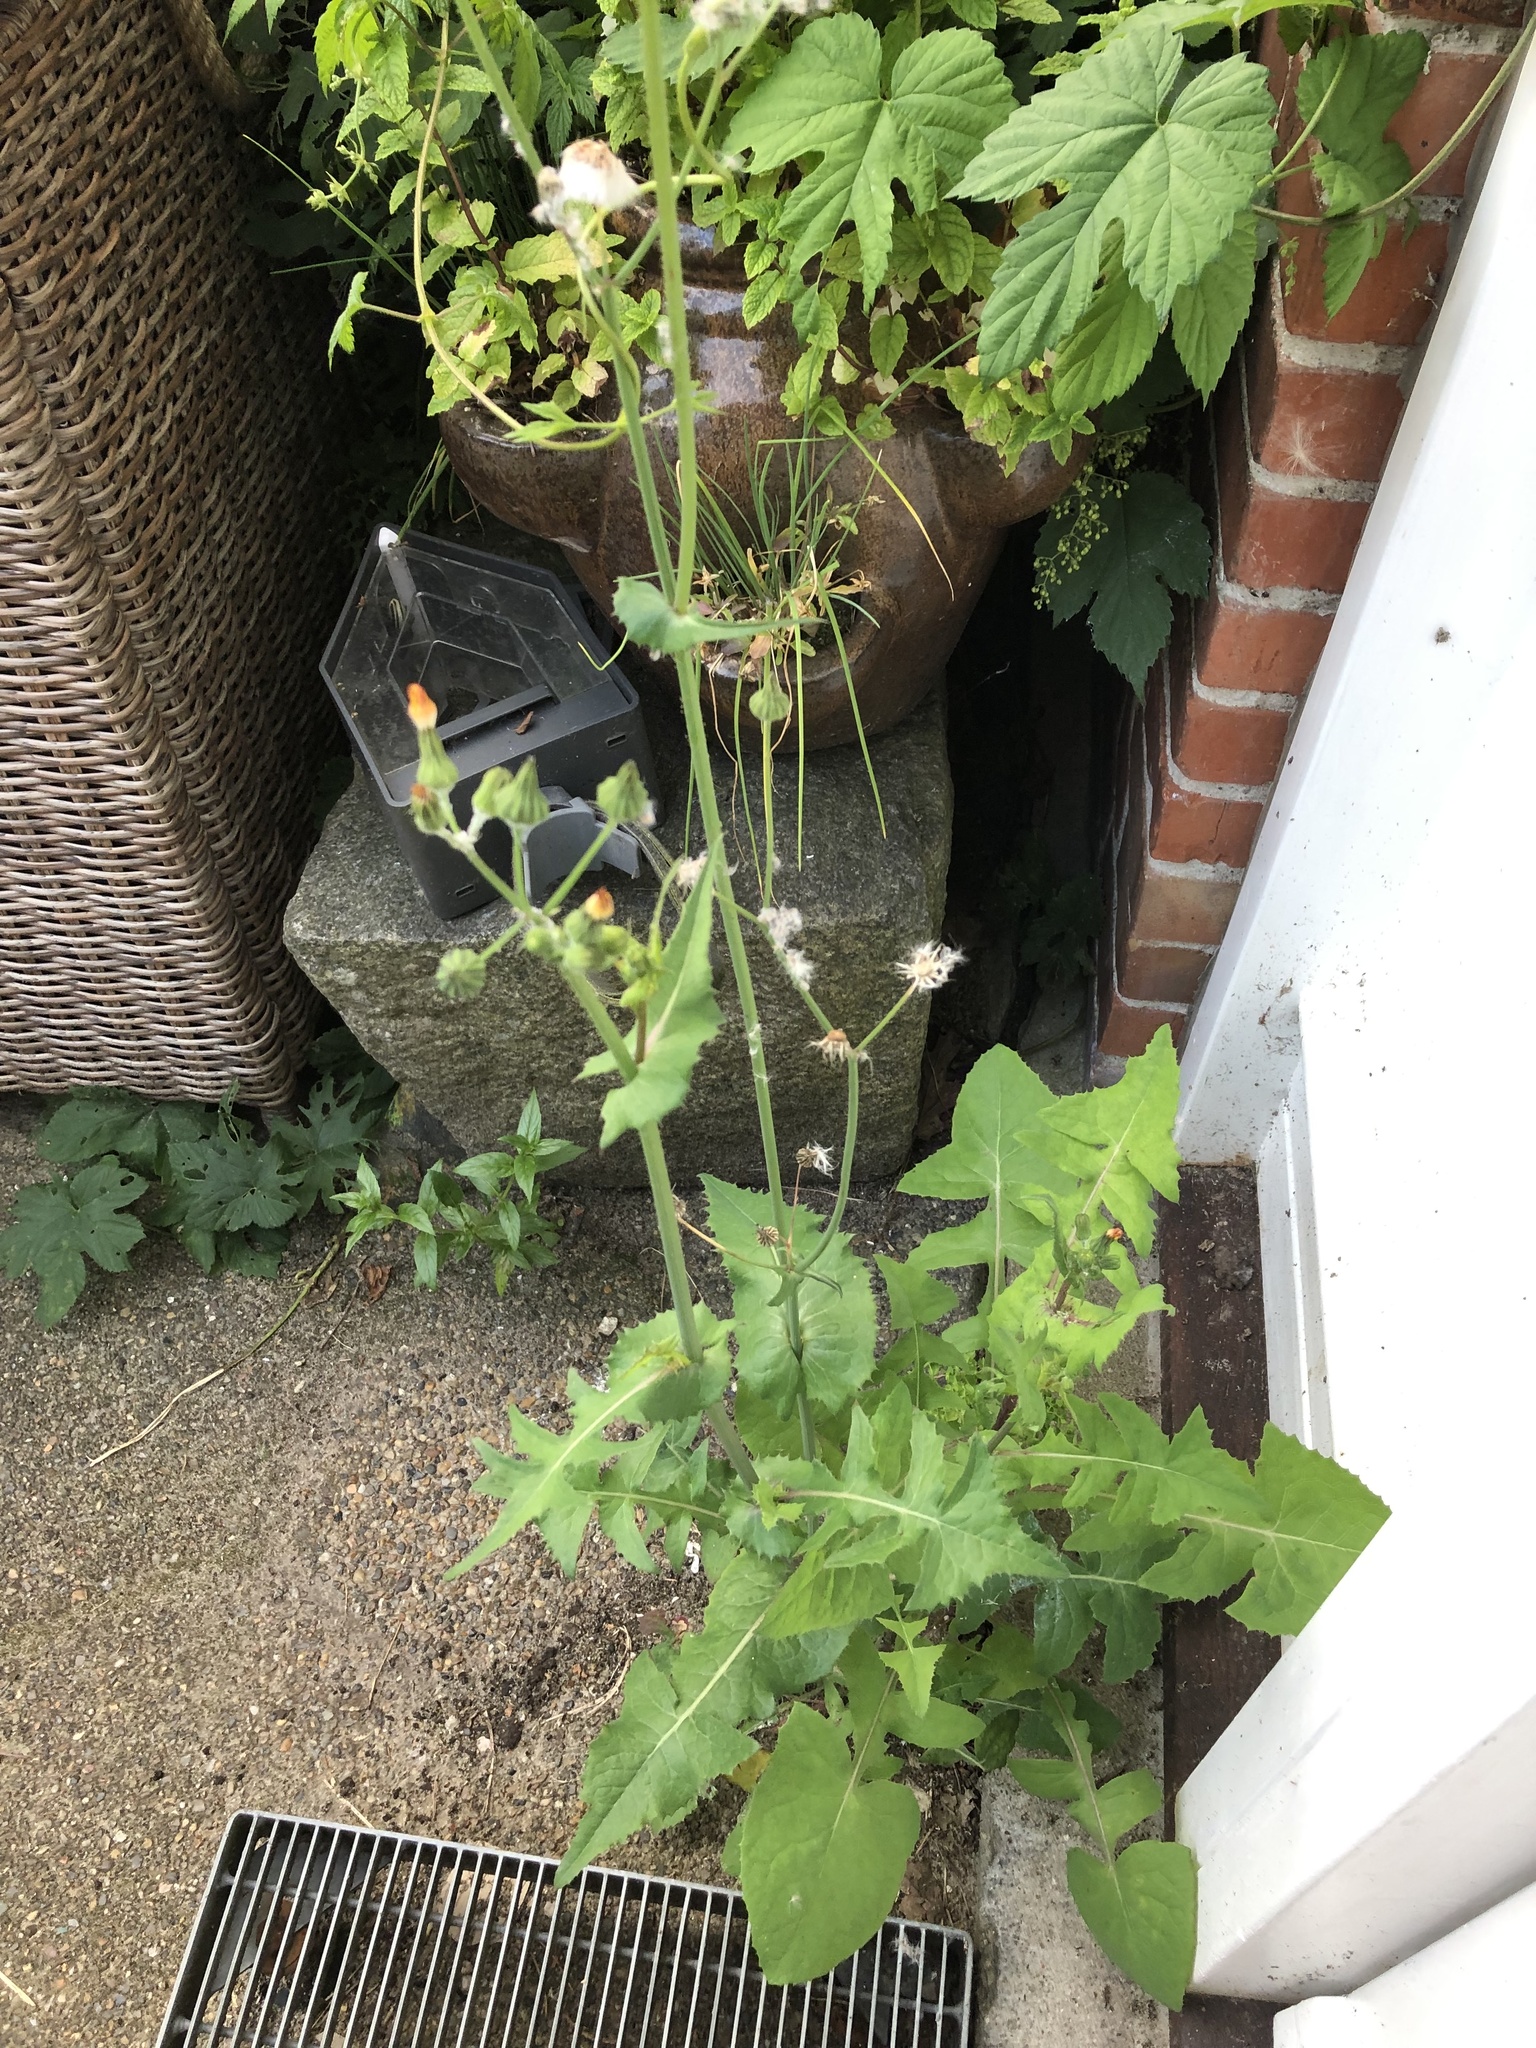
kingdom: Plantae
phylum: Tracheophyta
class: Magnoliopsida
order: Asterales
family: Asteraceae
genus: Sonchus
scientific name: Sonchus oleraceus
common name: Common sowthistle
